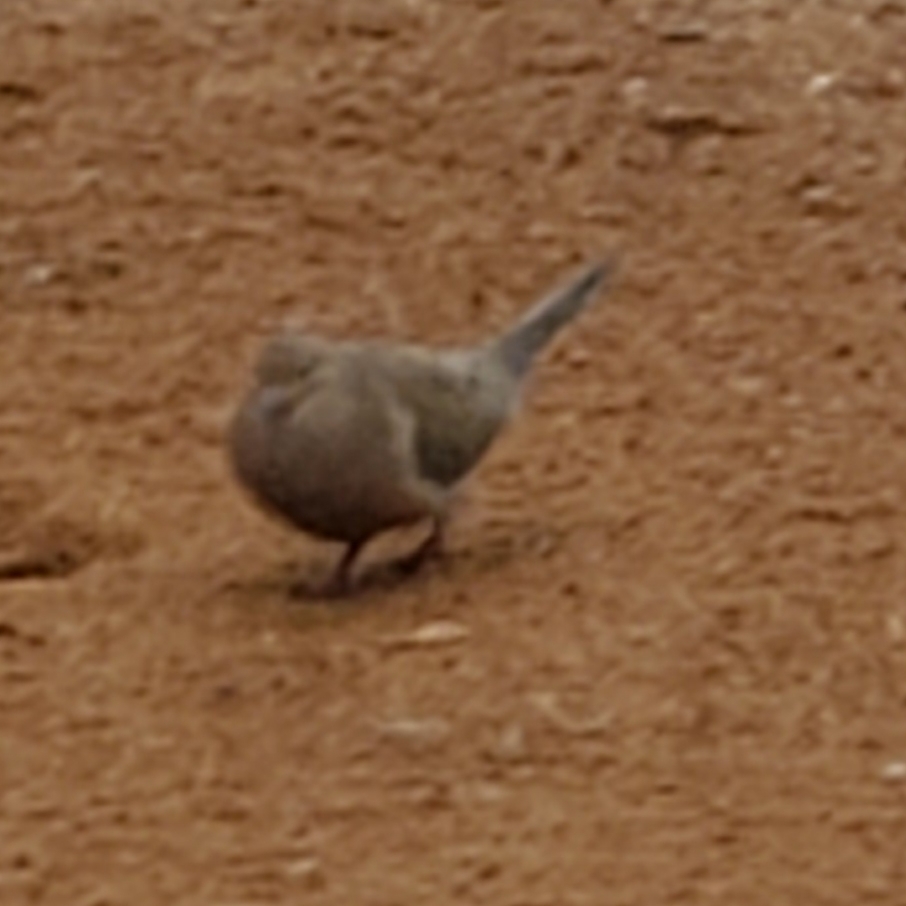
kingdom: Animalia
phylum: Chordata
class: Aves
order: Columbiformes
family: Columbidae
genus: Zenaida
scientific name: Zenaida macroura
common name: Mourning dove
